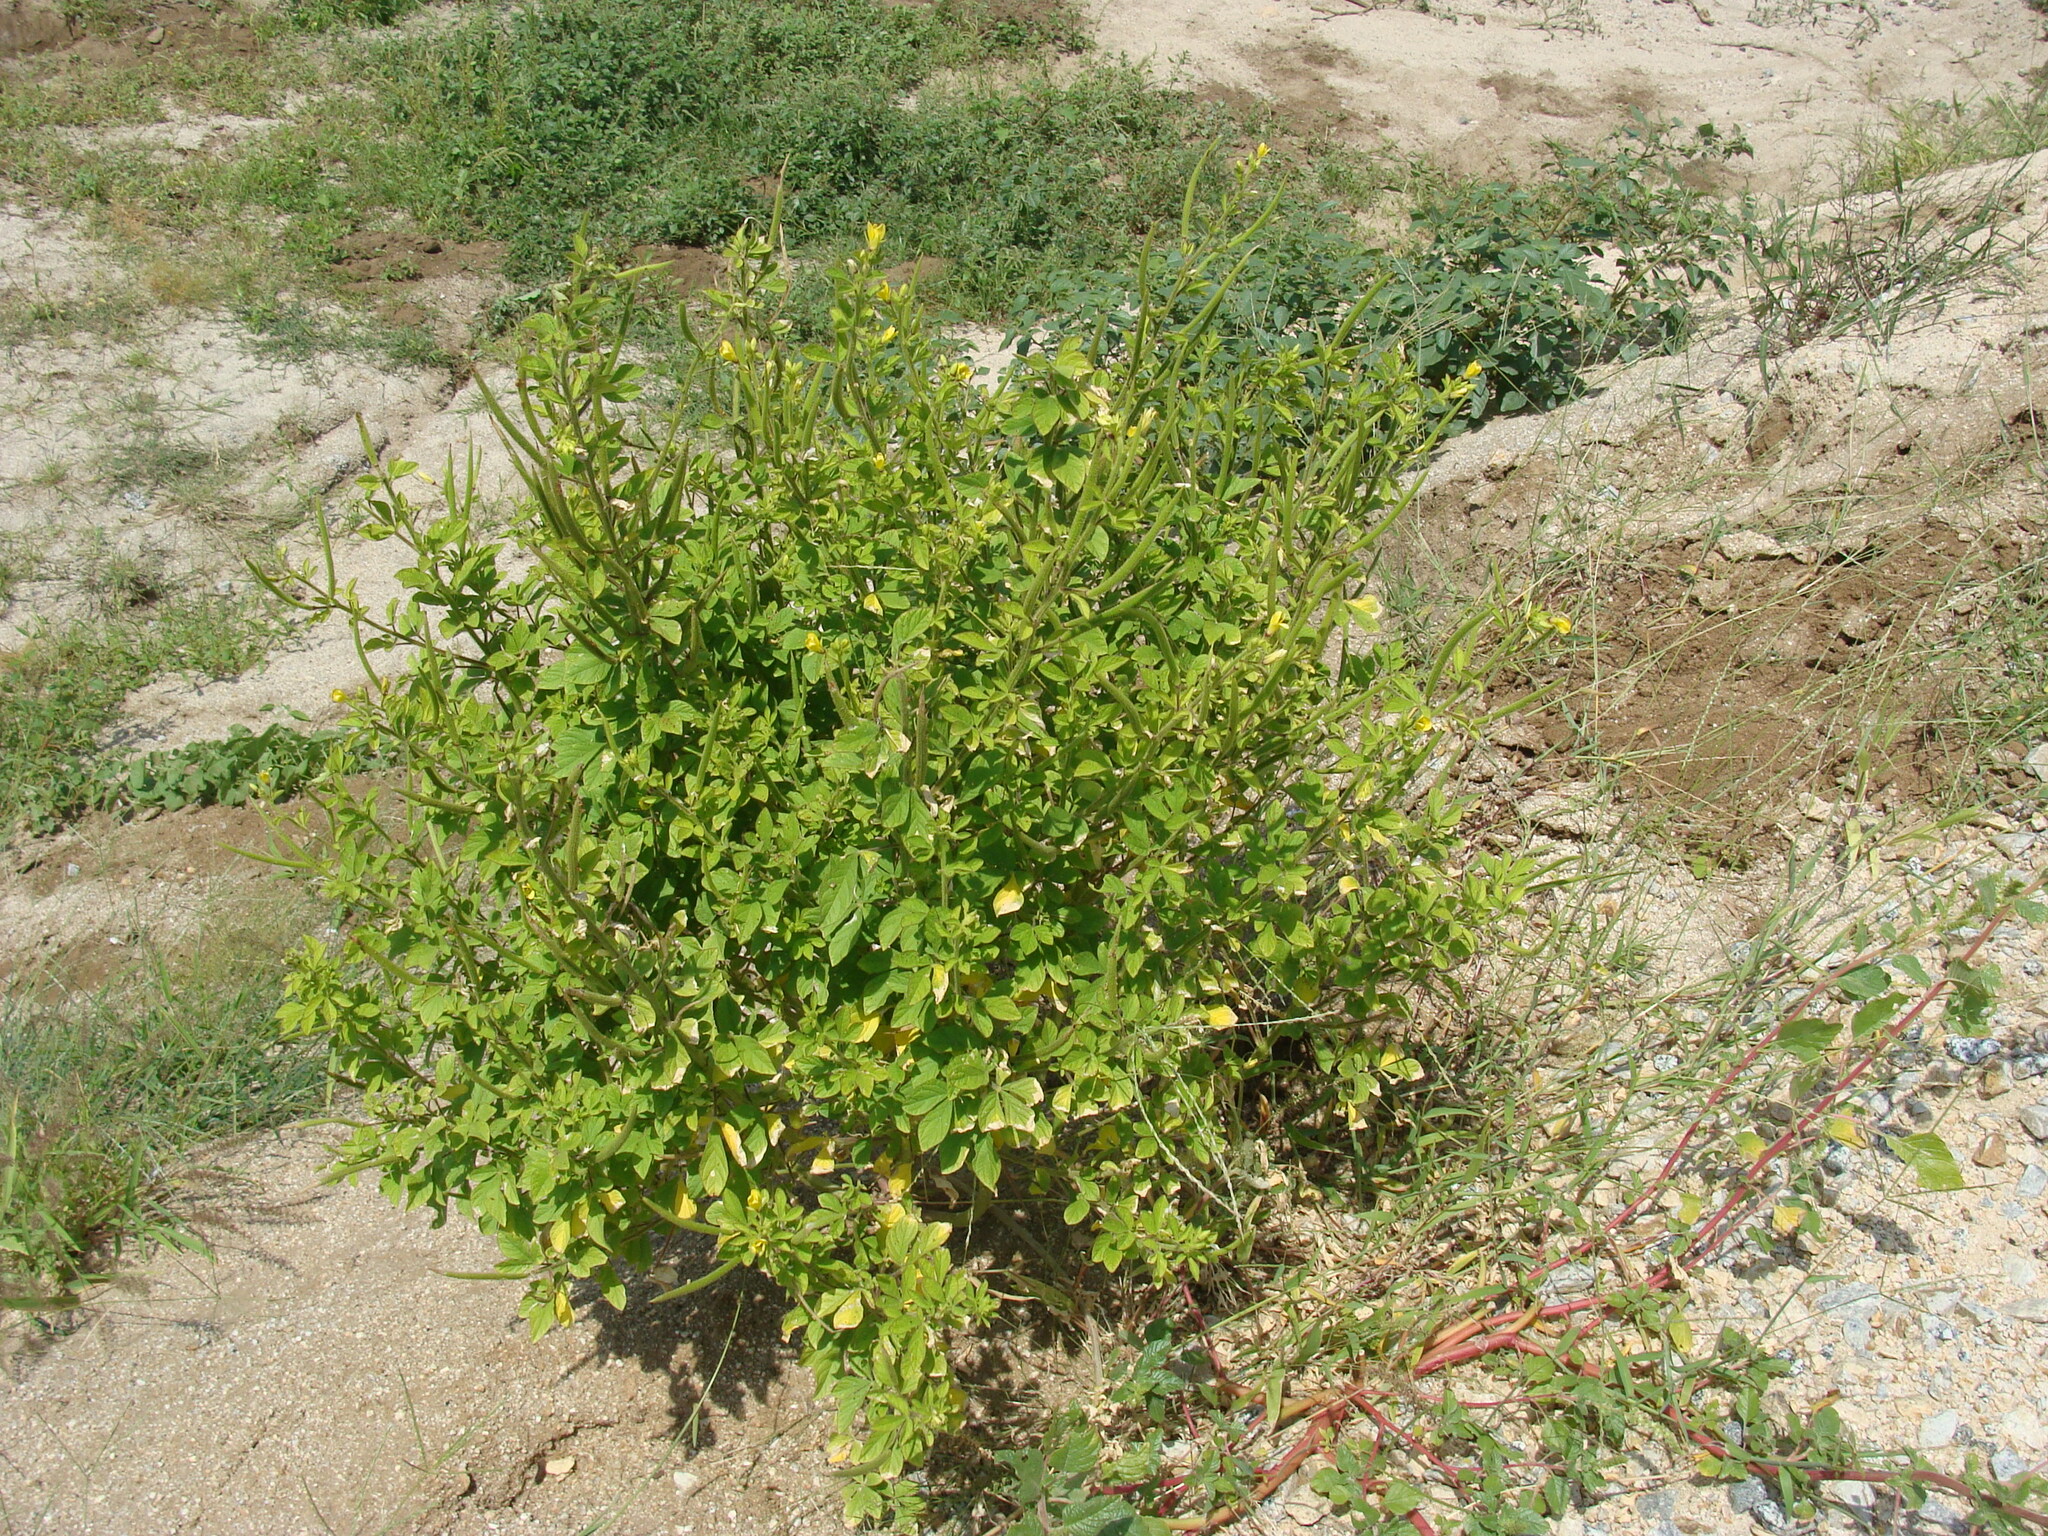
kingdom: Plantae
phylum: Tracheophyta
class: Magnoliopsida
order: Brassicales
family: Cleomaceae
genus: Arivela
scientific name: Arivela viscosa
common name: Asian spiderflower
